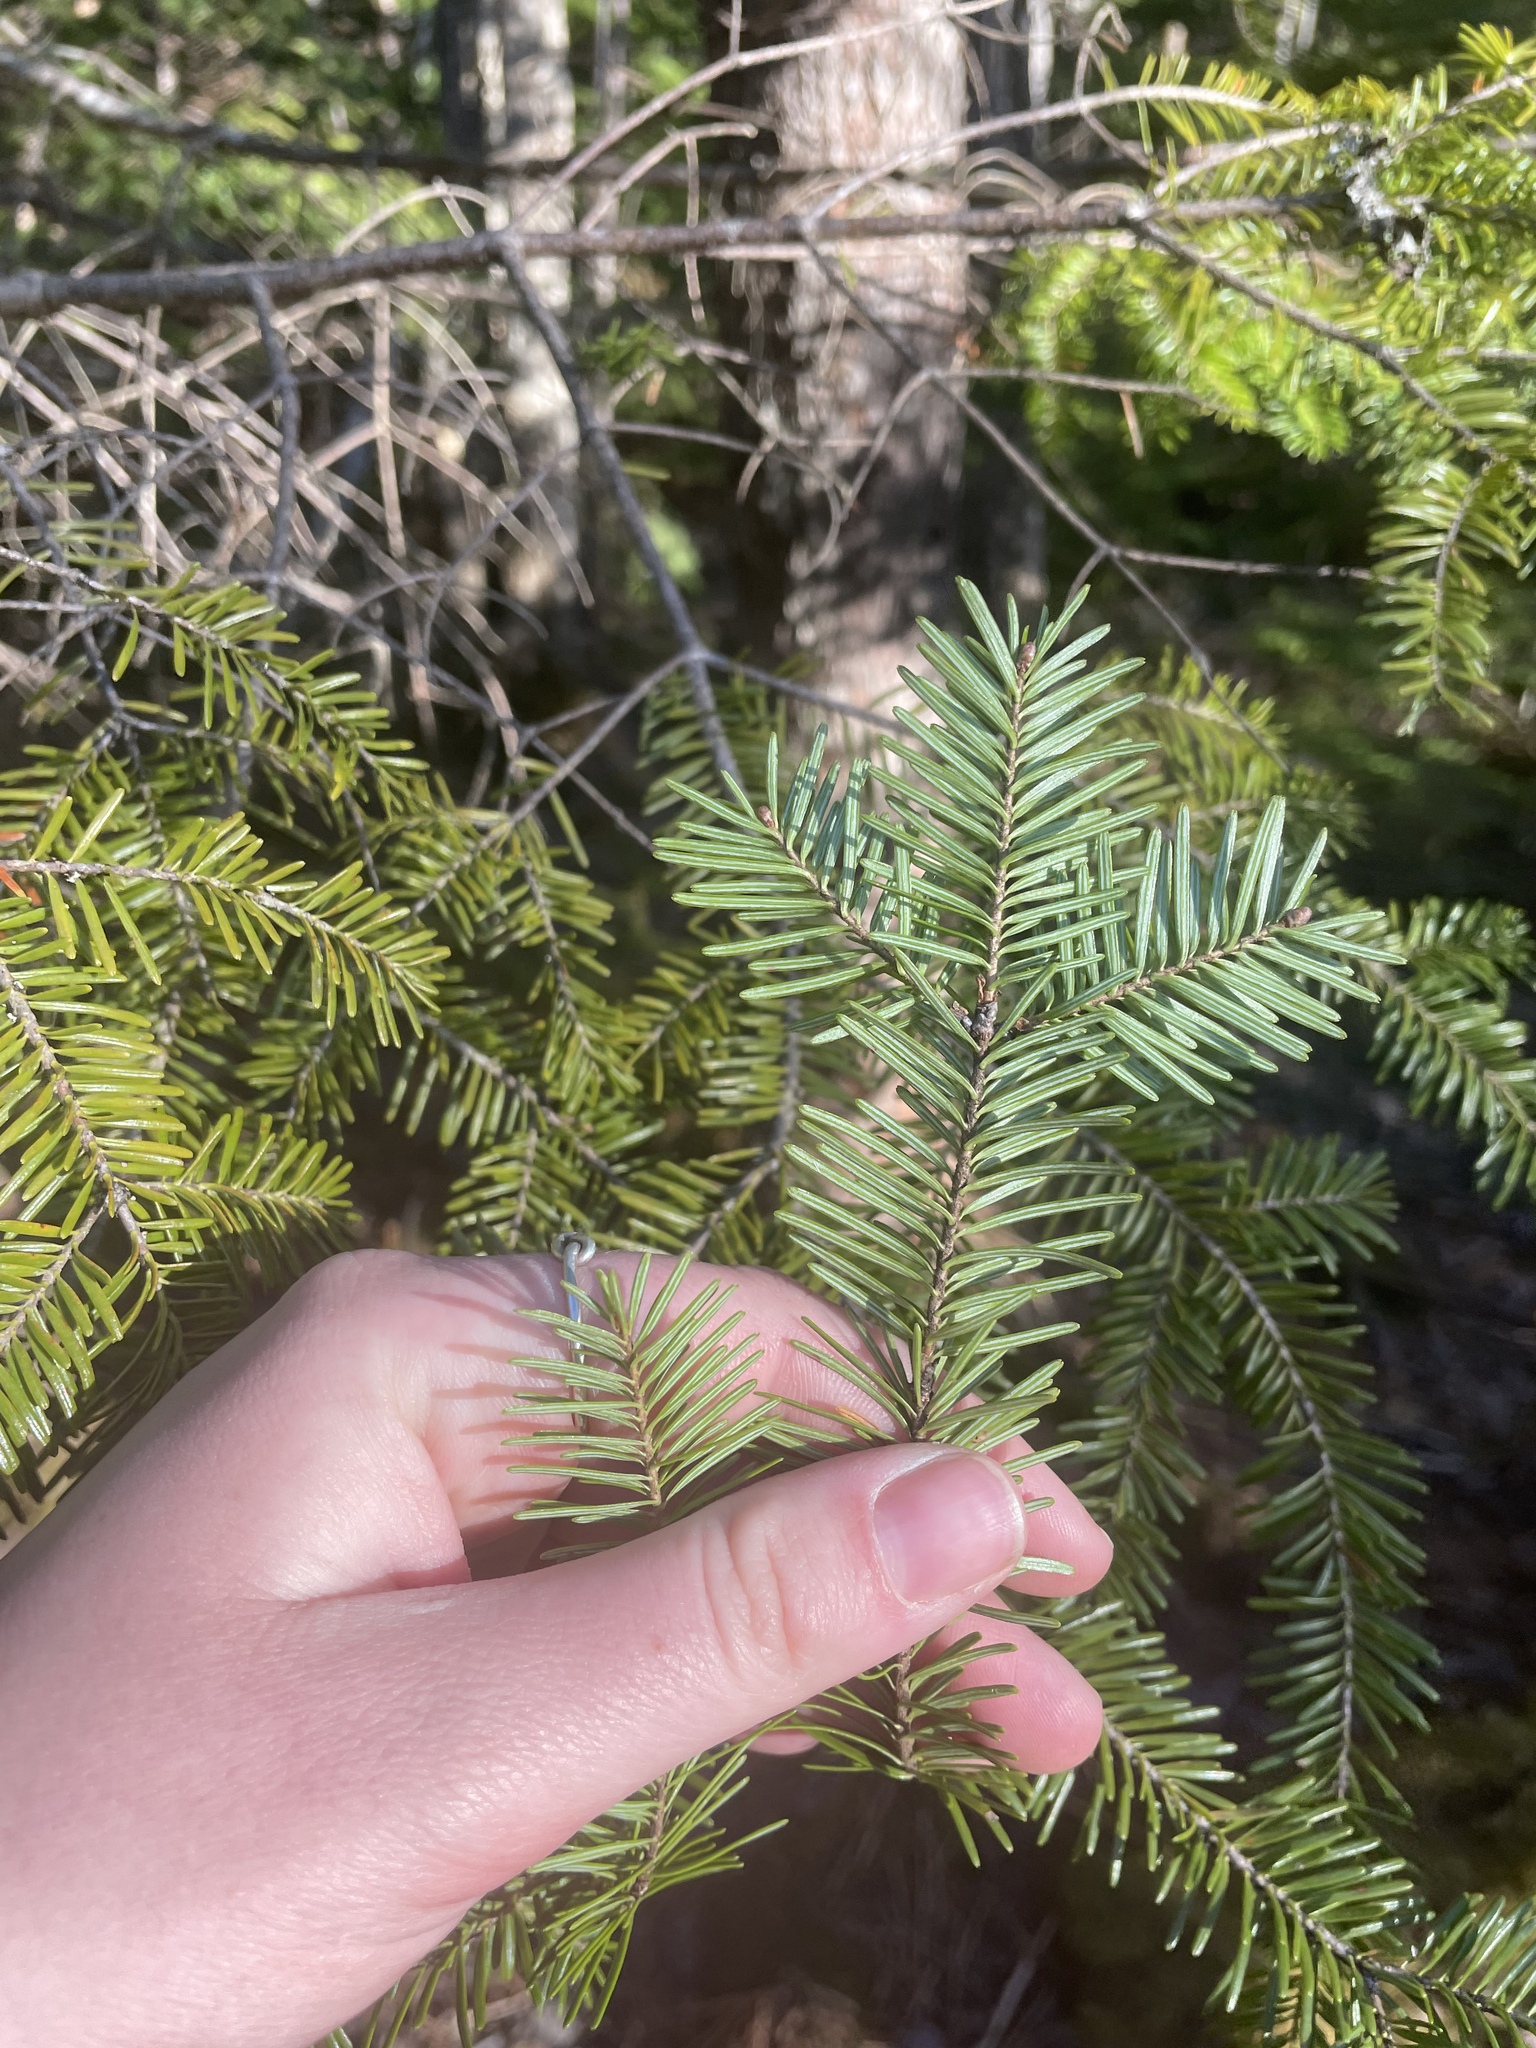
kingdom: Plantae
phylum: Tracheophyta
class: Pinopsida
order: Pinales
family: Pinaceae
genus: Abies
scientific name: Abies balsamea
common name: Balsam fir
